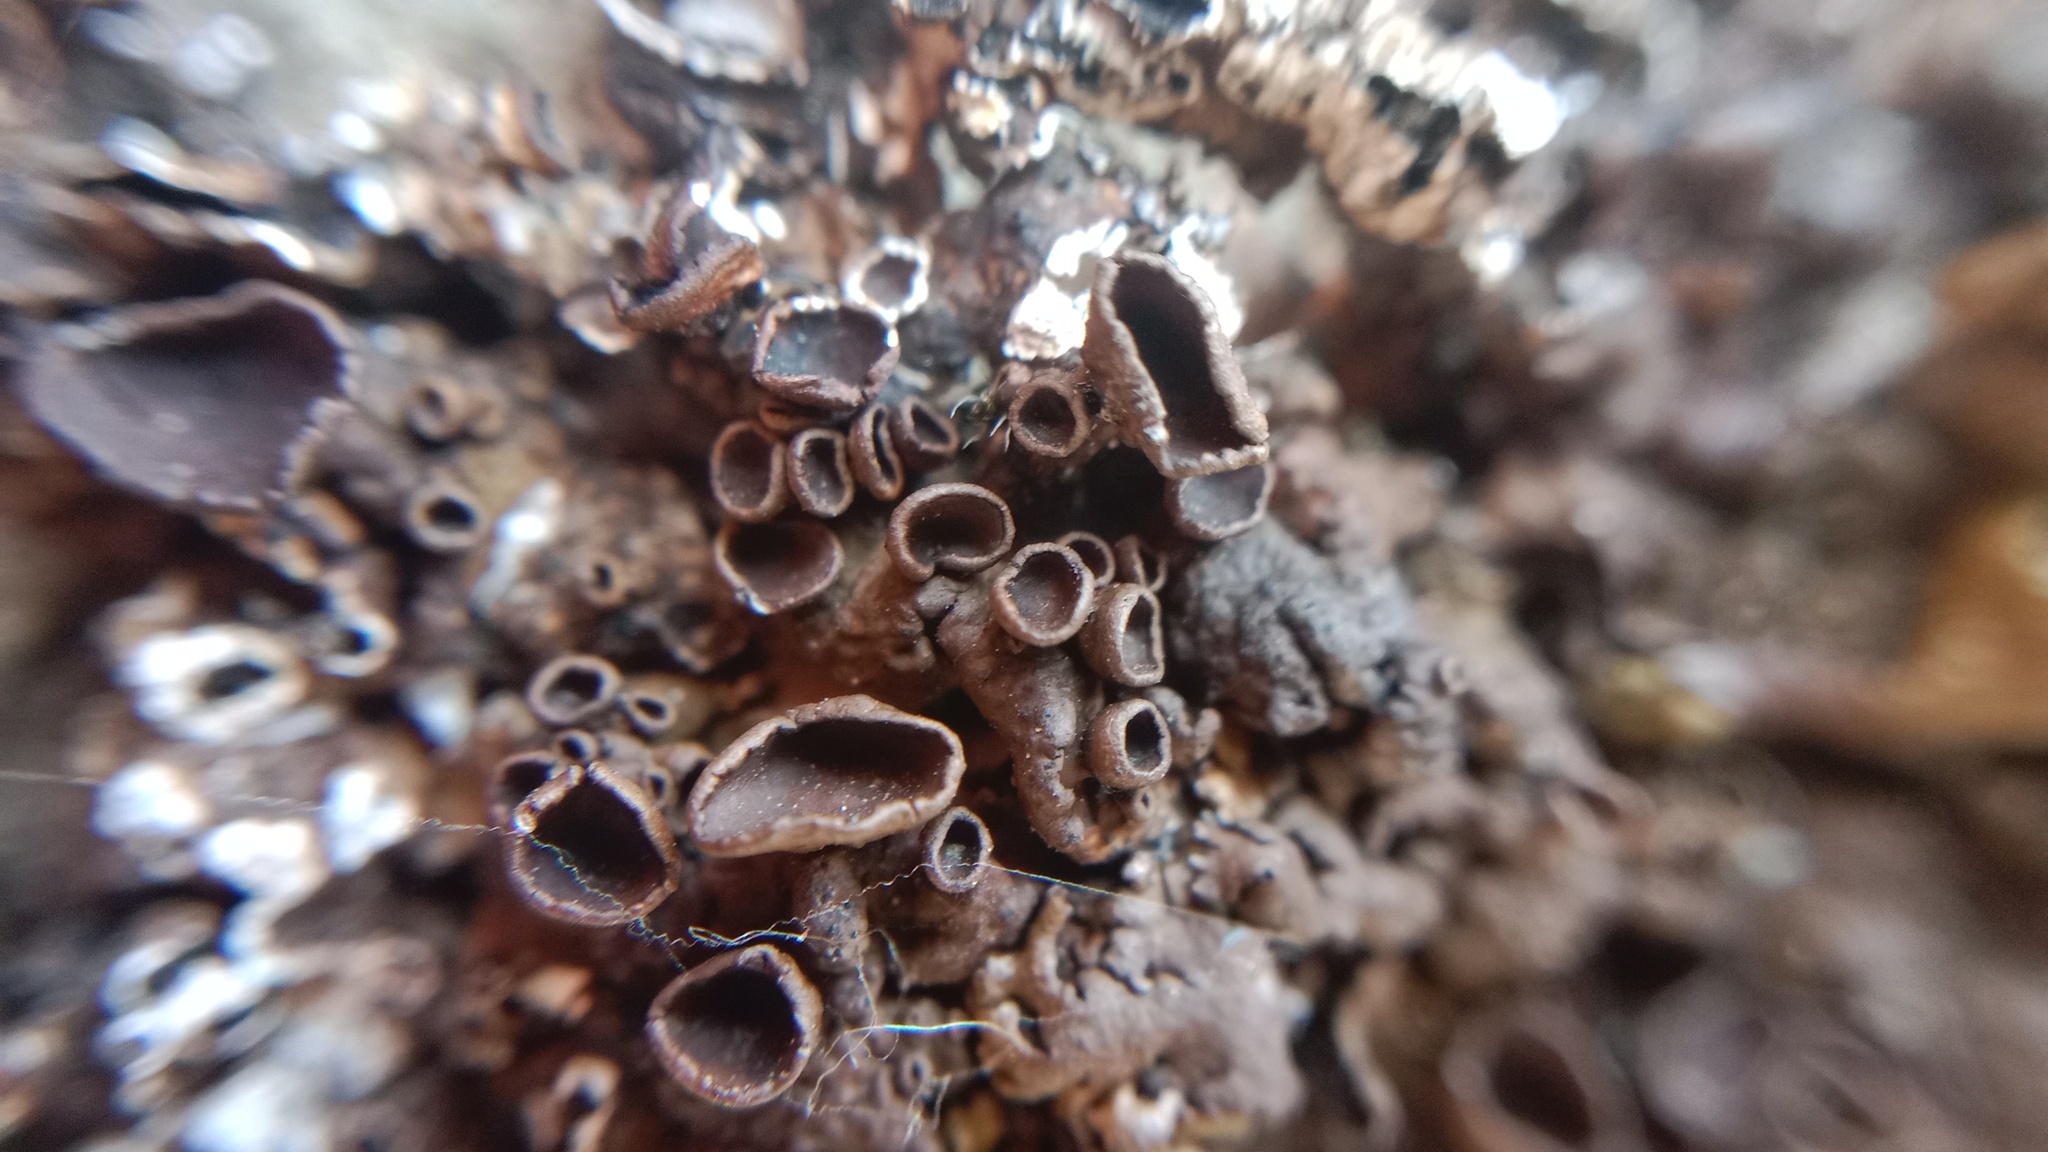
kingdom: Fungi
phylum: Ascomycota
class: Lecanoromycetes
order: Lecanorales
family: Parmeliaceae
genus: Xanthoparmelia
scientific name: Xanthoparmelia pulla
